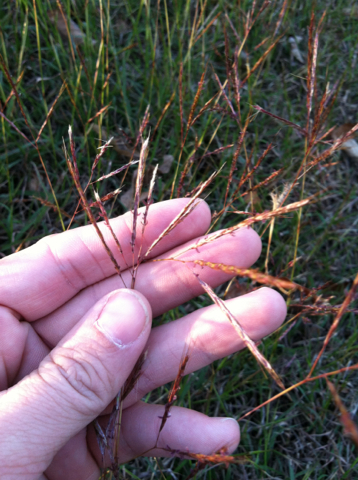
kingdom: Plantae
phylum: Tracheophyta
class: Liliopsida
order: Poales
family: Poaceae
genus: Bothriochloa
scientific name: Bothriochloa ischaemum
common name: Yellow bluestem
